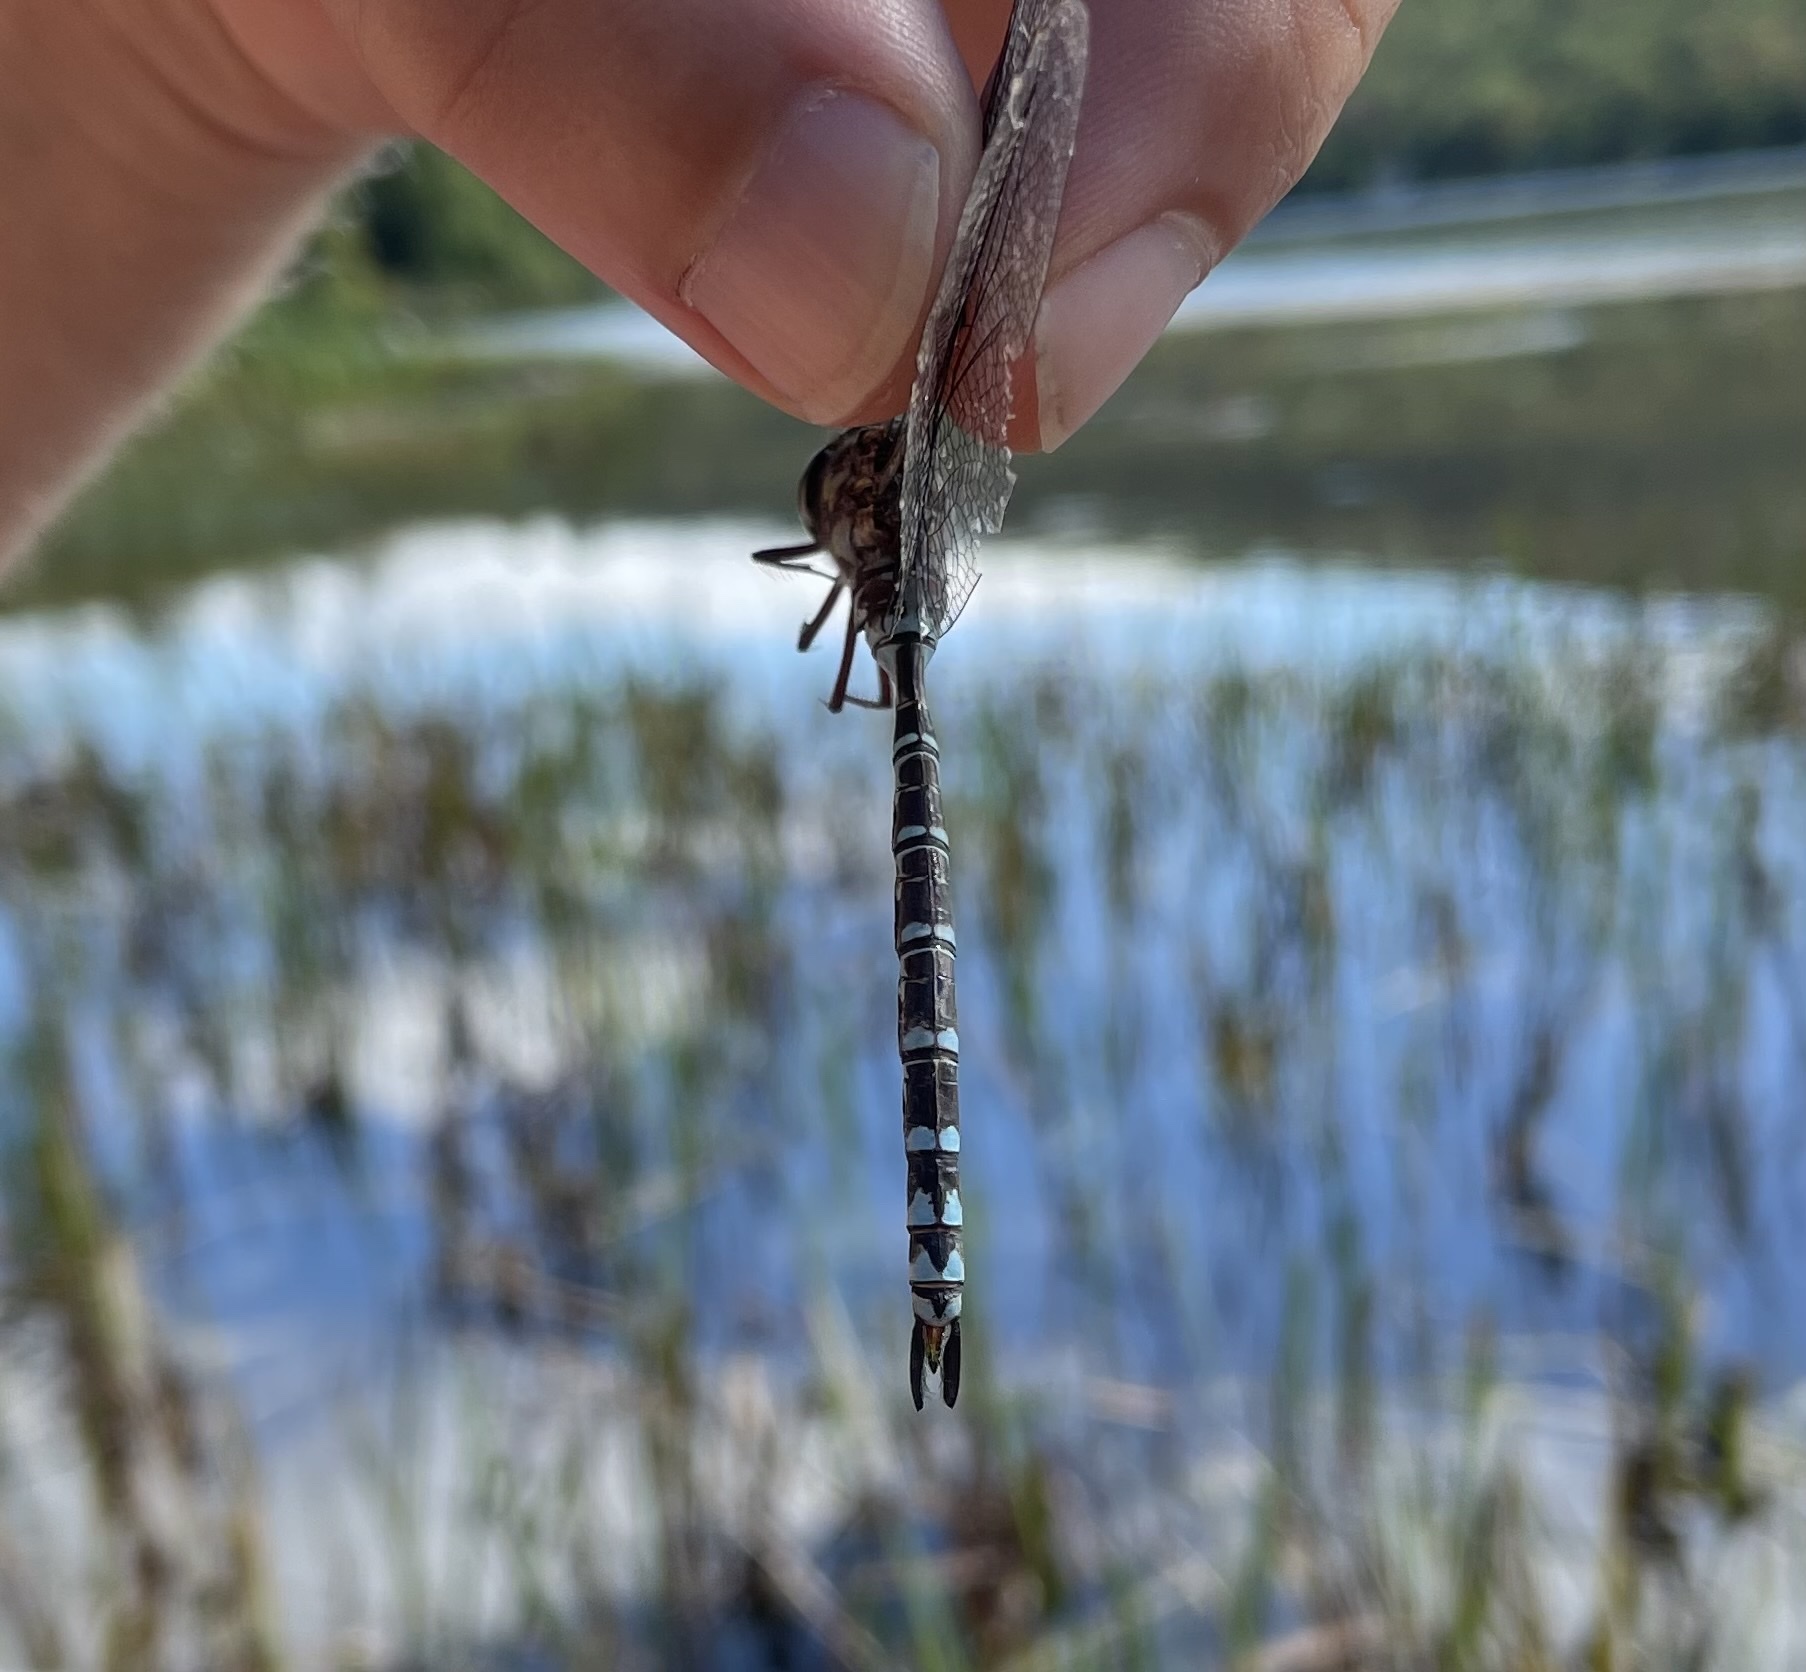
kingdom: Animalia
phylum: Arthropoda
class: Insecta
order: Odonata
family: Aeshnidae
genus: Aeshna
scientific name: Aeshna clepsydra
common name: Mottled darner
